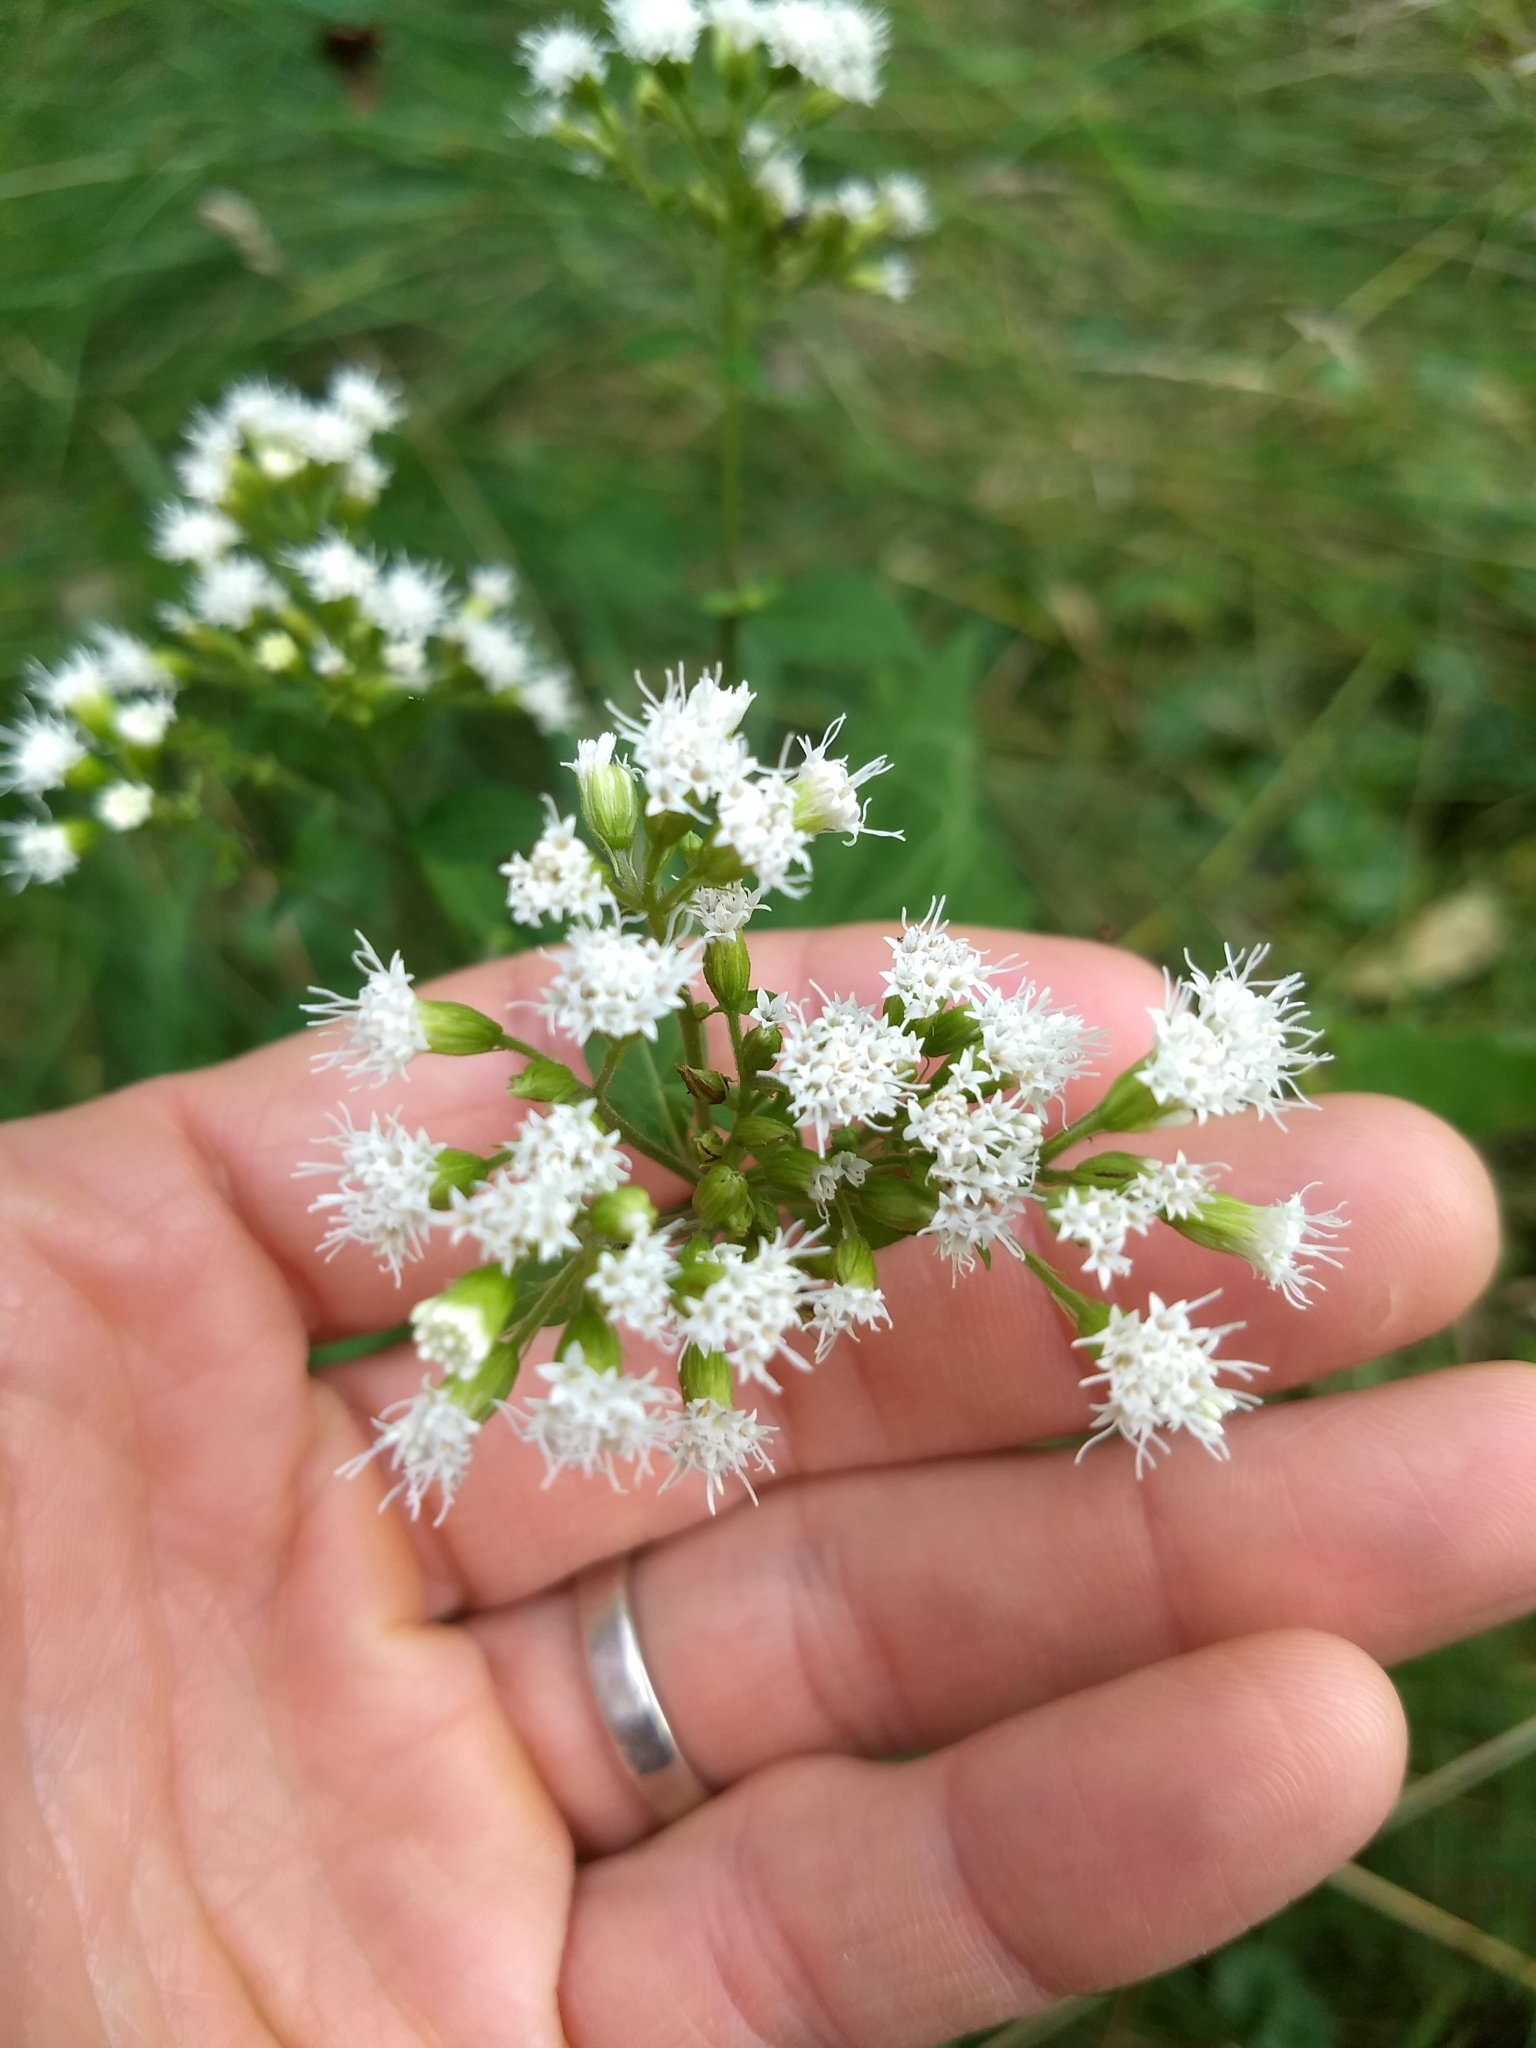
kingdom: Plantae
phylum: Tracheophyta
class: Magnoliopsida
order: Asterales
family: Asteraceae
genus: Ageratina
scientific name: Ageratina altissima
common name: White snakeroot
